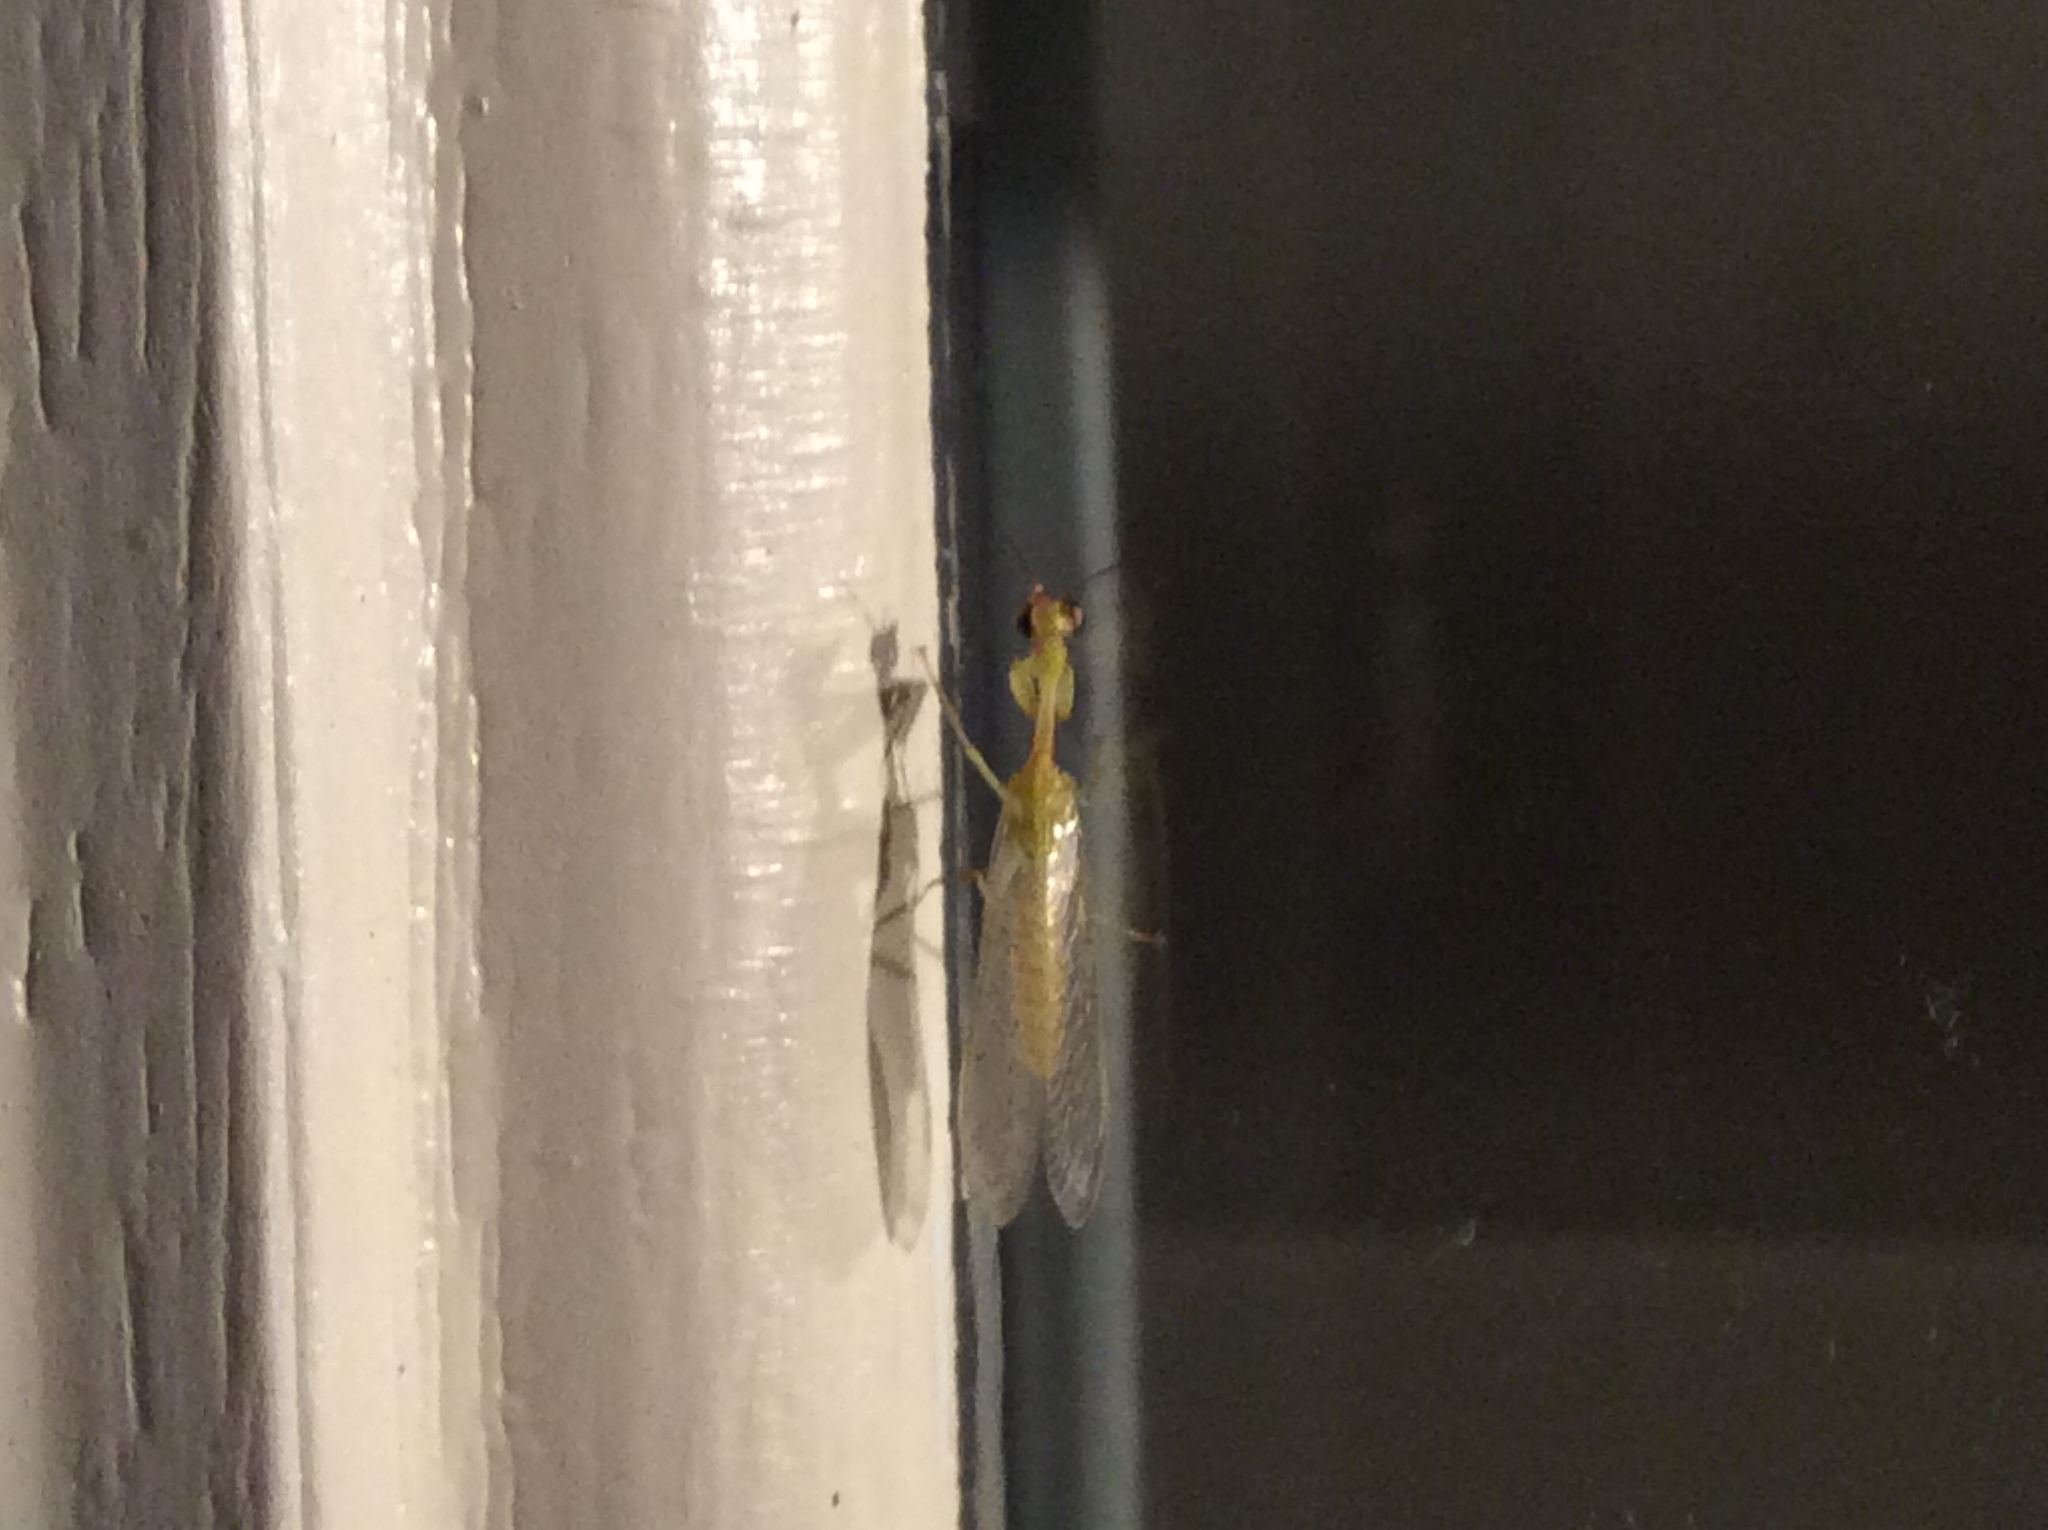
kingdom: Animalia
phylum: Arthropoda
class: Insecta
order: Neuroptera
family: Mantispidae
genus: Zeugomantispa
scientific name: Zeugomantispa minuta
